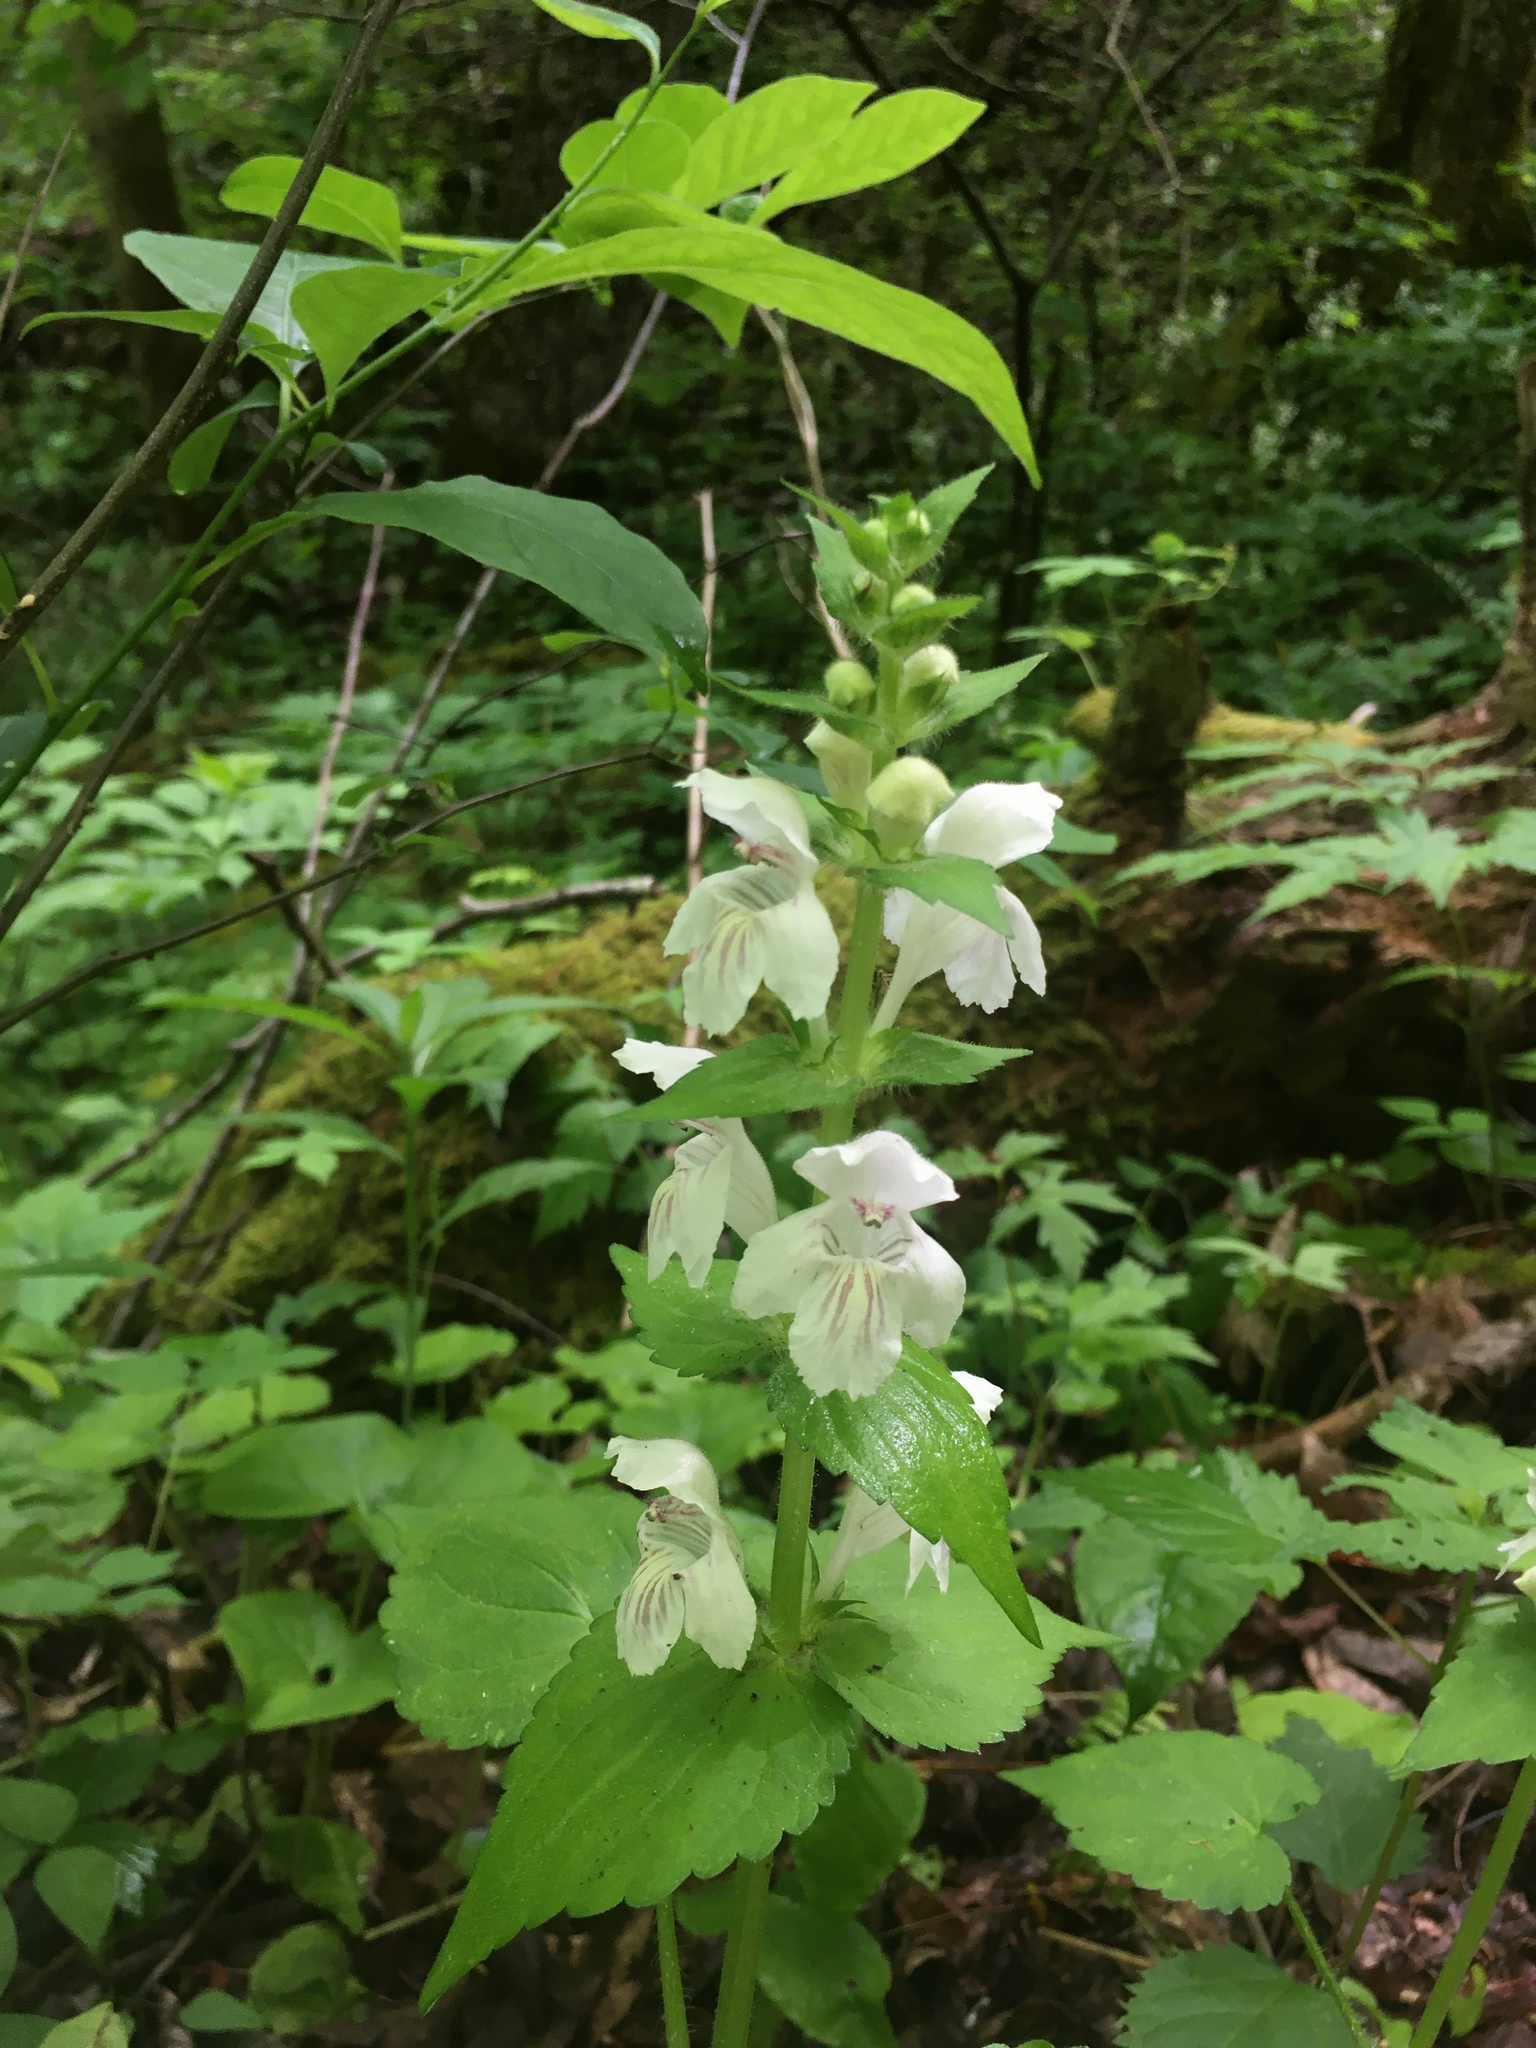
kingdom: Plantae
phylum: Tracheophyta
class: Magnoliopsida
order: Lamiales
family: Lamiaceae
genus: Synandra
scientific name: Synandra hispidula
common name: Synandra
